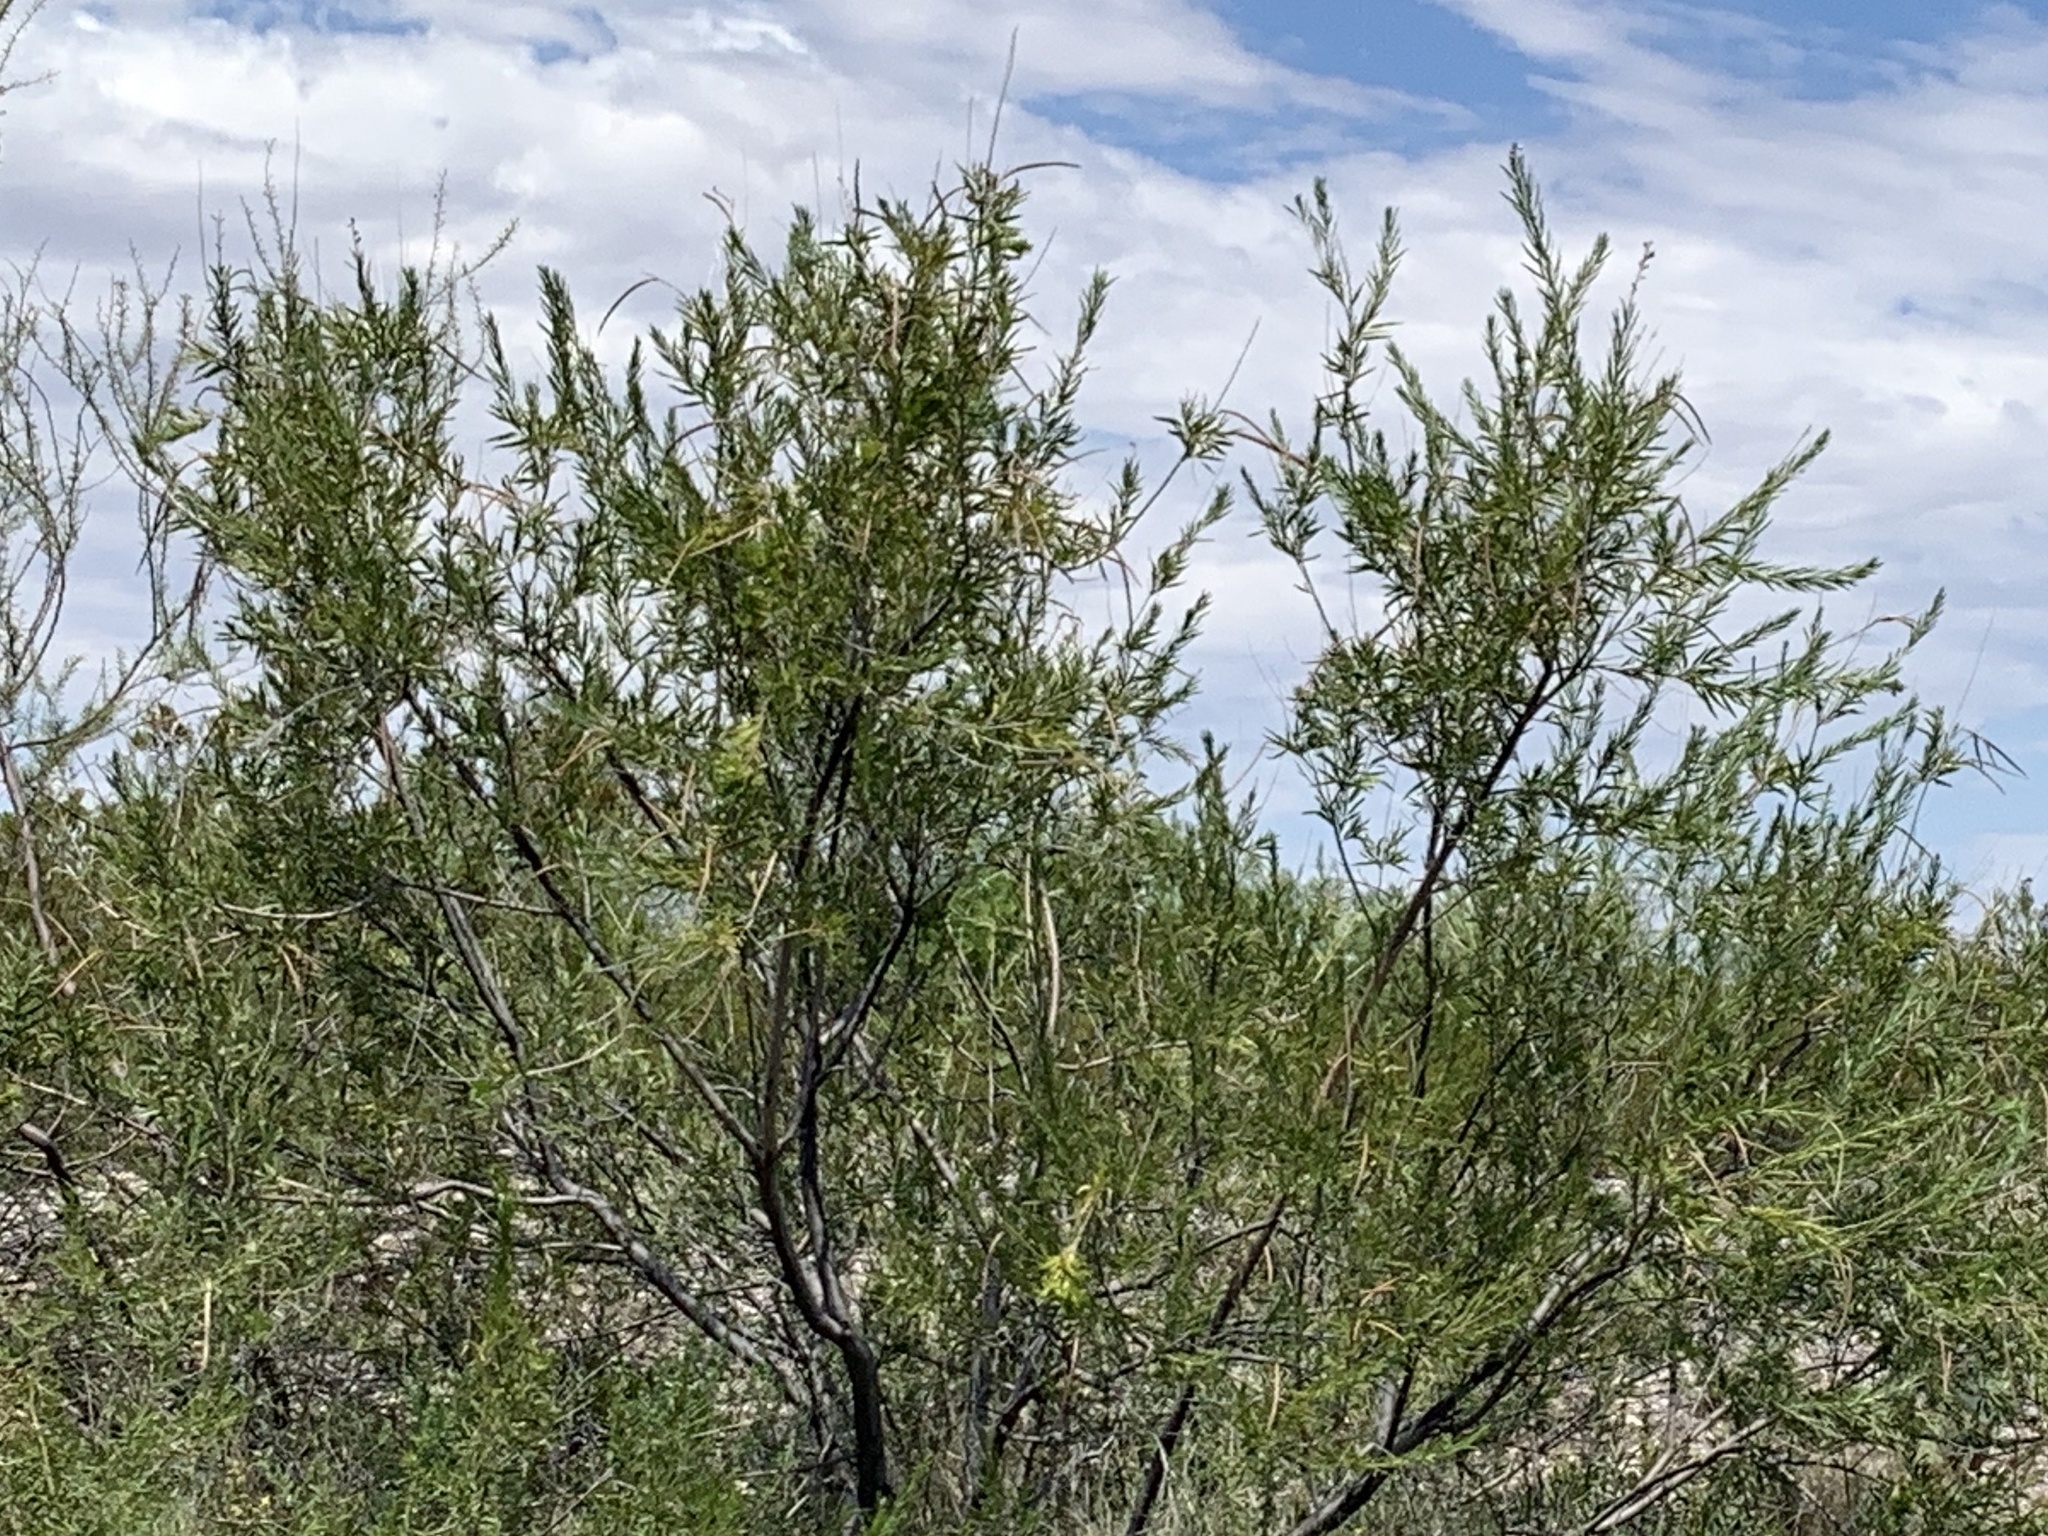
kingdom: Plantae
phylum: Tracheophyta
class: Magnoliopsida
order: Lamiales
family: Bignoniaceae
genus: Chilopsis
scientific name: Chilopsis linearis
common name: Desert-willow
